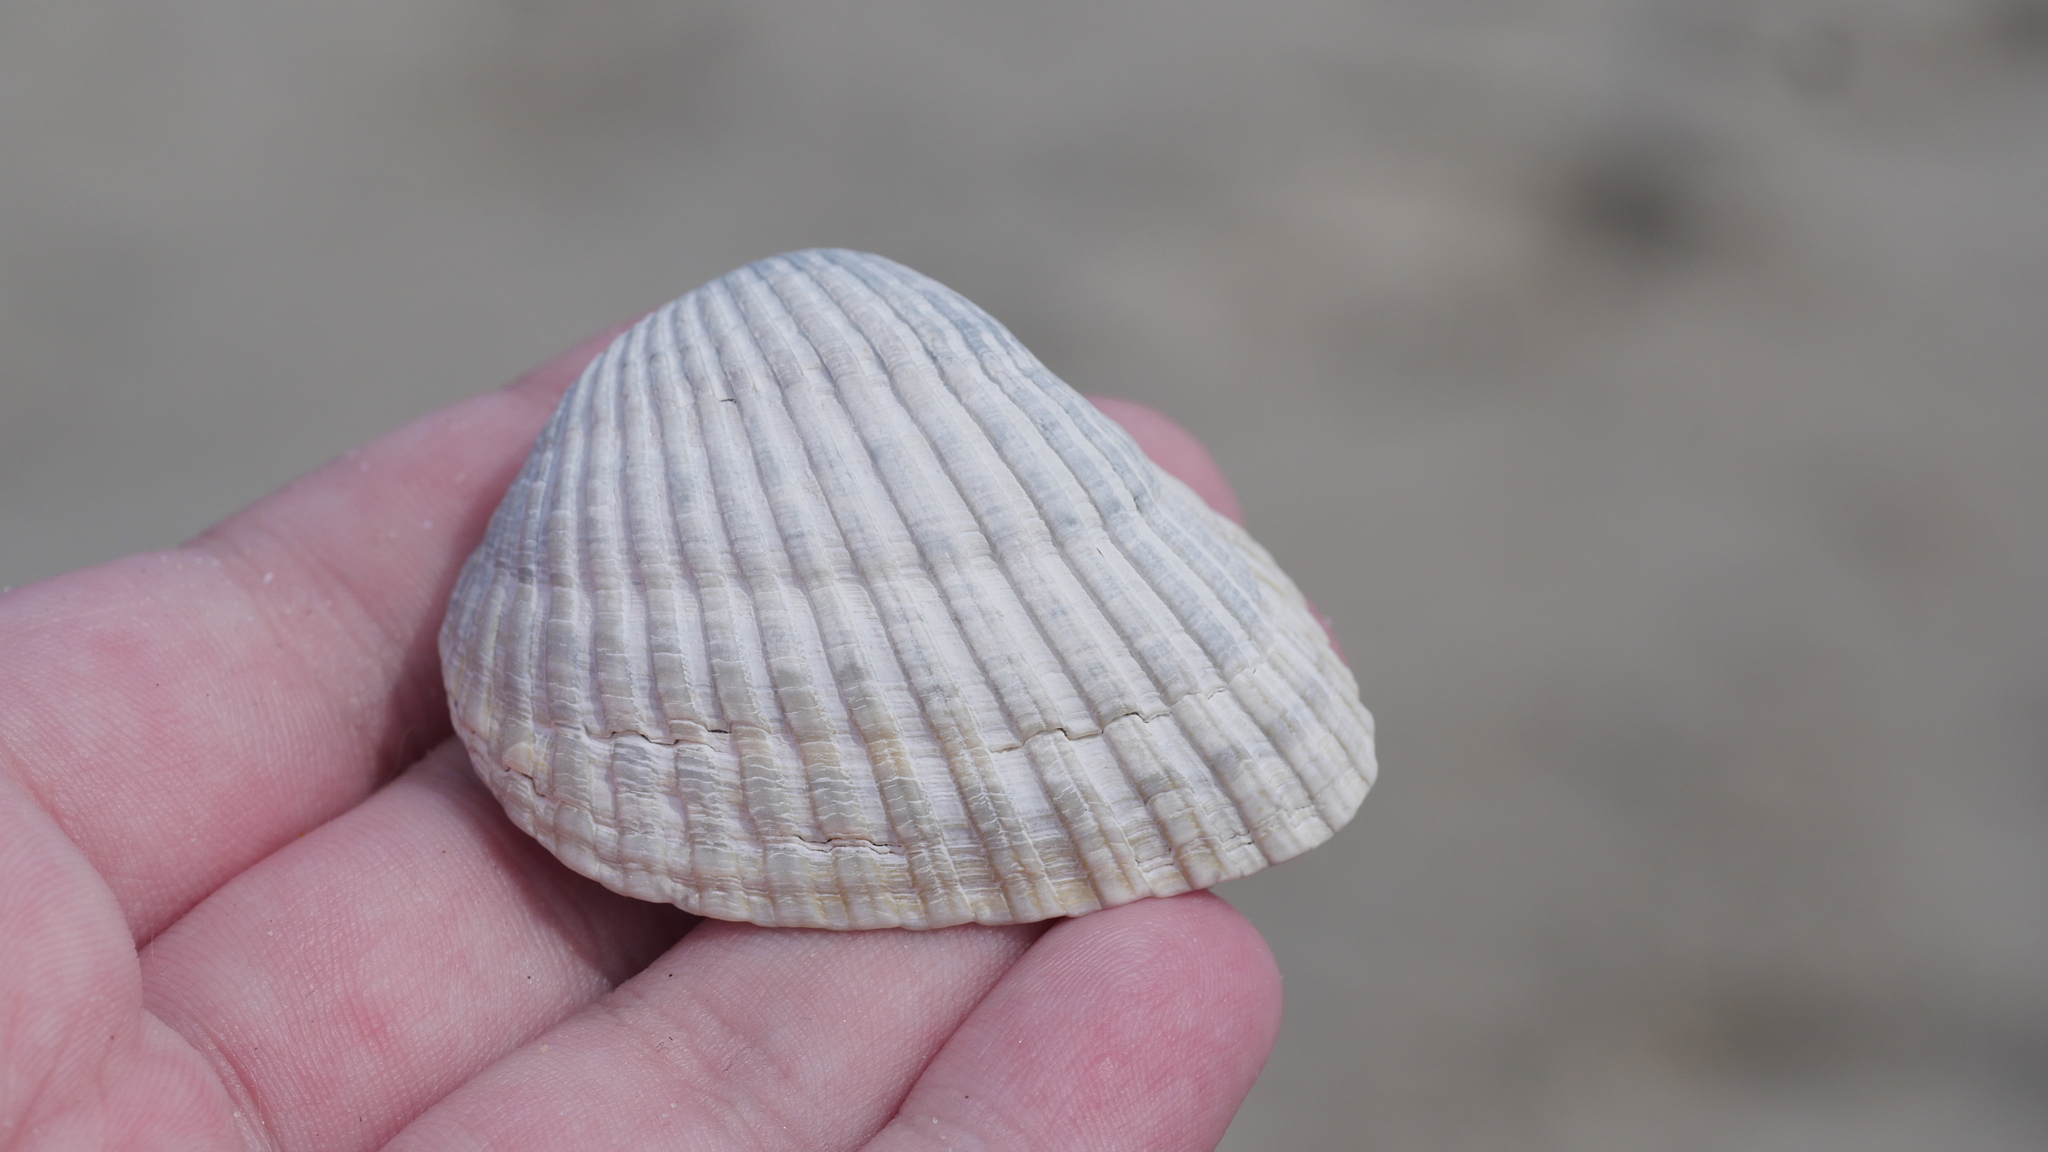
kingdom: Animalia
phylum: Mollusca
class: Bivalvia
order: Arcida
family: Noetiidae
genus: Noetia
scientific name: Noetia ponderosa
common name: Ponderous ark
